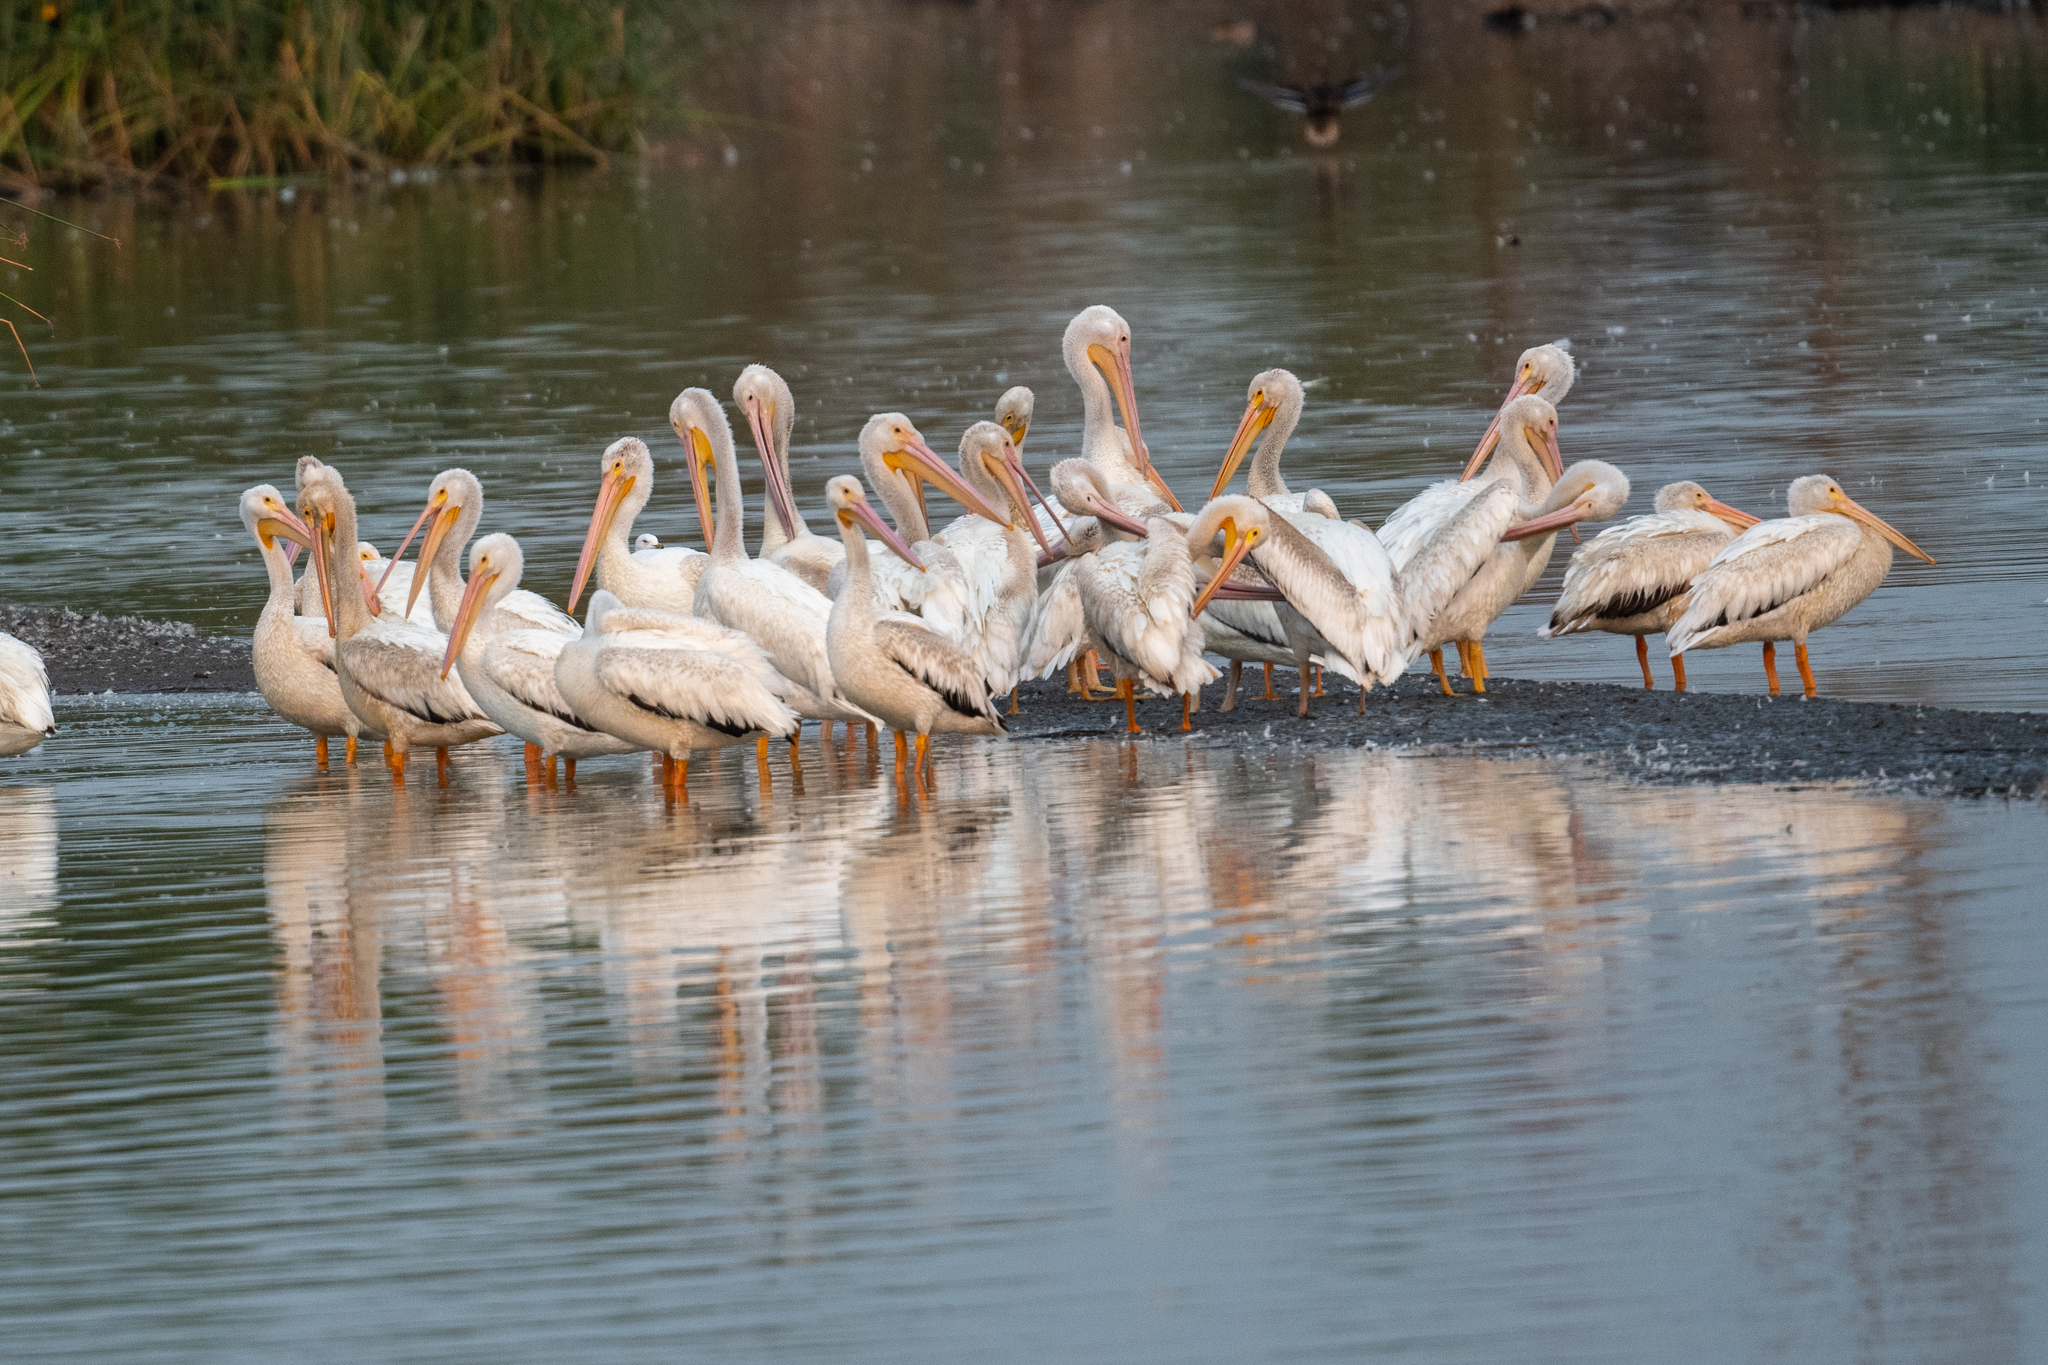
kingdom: Animalia
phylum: Chordata
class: Aves
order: Pelecaniformes
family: Pelecanidae
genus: Pelecanus
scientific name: Pelecanus erythrorhynchos
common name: American white pelican
